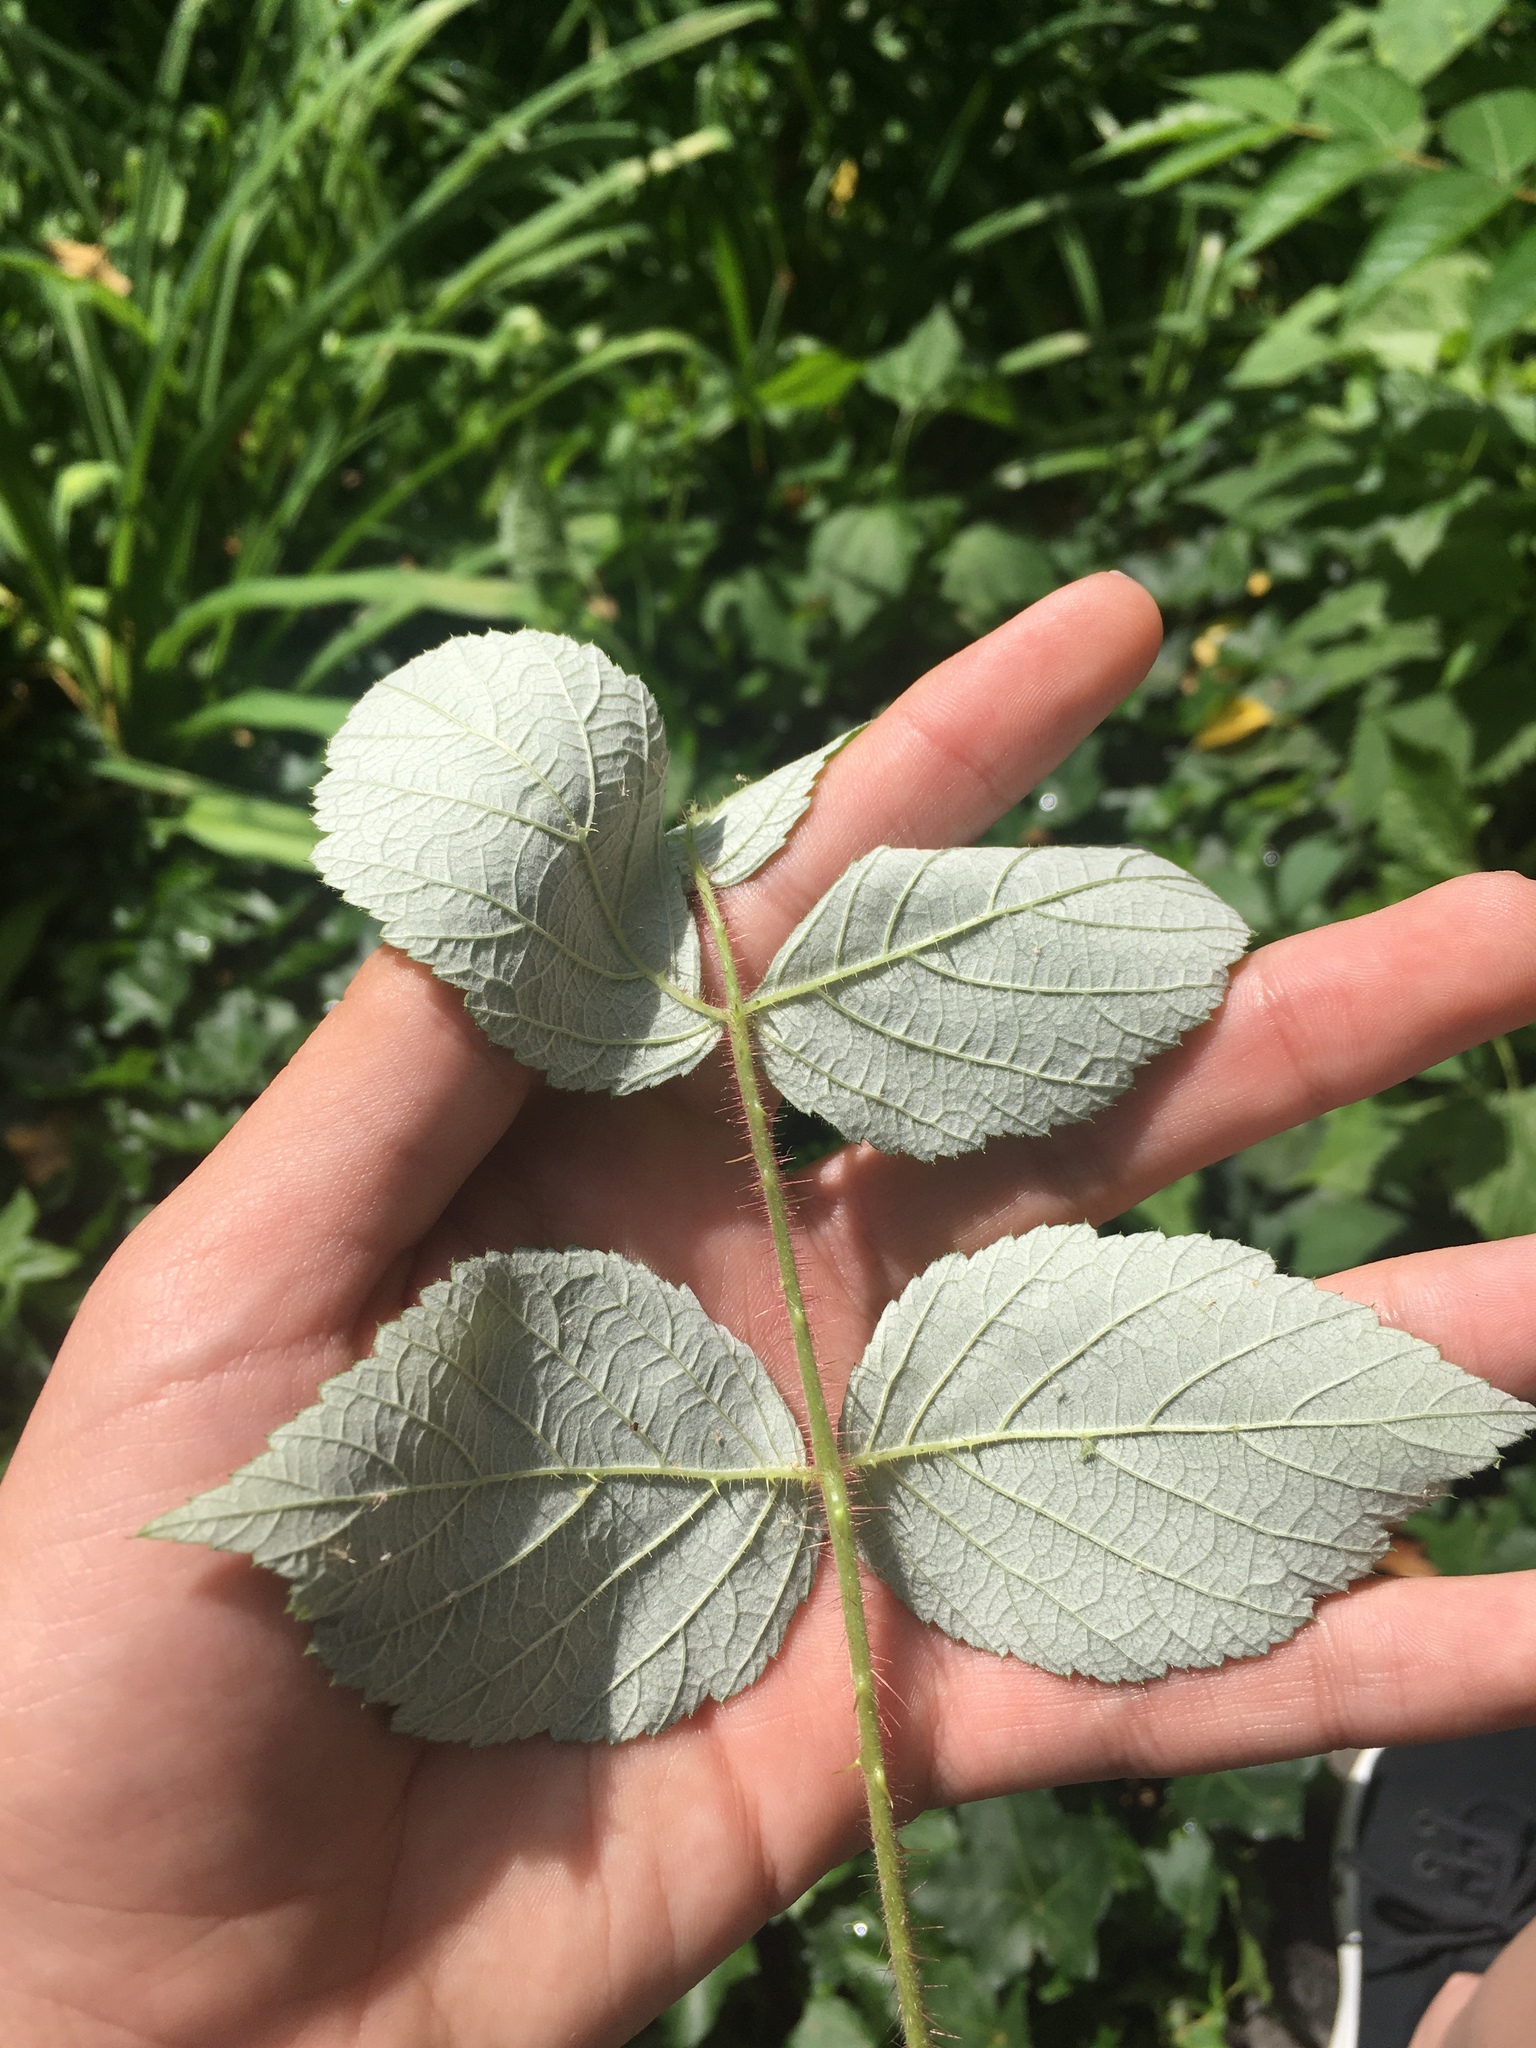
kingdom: Plantae
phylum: Tracheophyta
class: Magnoliopsida
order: Rosales
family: Rosaceae
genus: Rubus
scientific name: Rubus phoenicolasius
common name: Japanese wineberry
